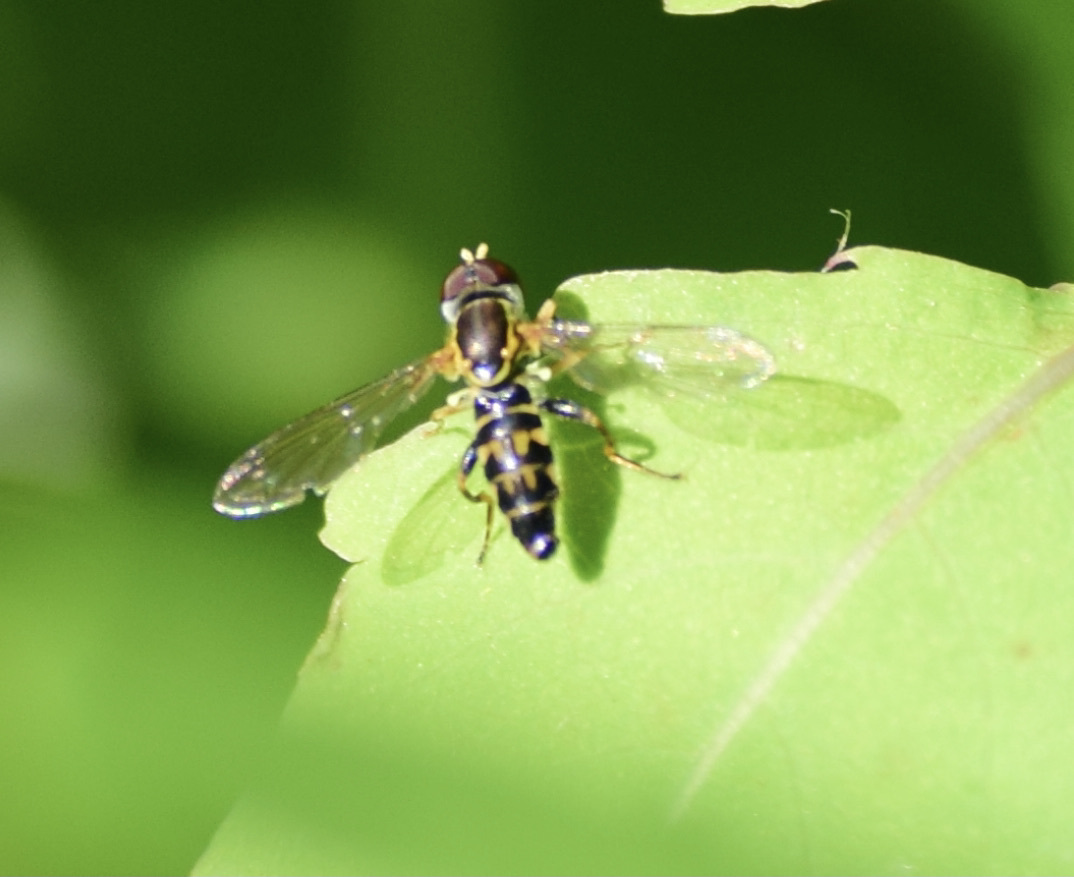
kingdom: Animalia
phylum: Arthropoda
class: Insecta
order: Diptera
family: Syrphidae
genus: Toxomerus
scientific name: Toxomerus geminatus
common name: Eastern calligrapher
